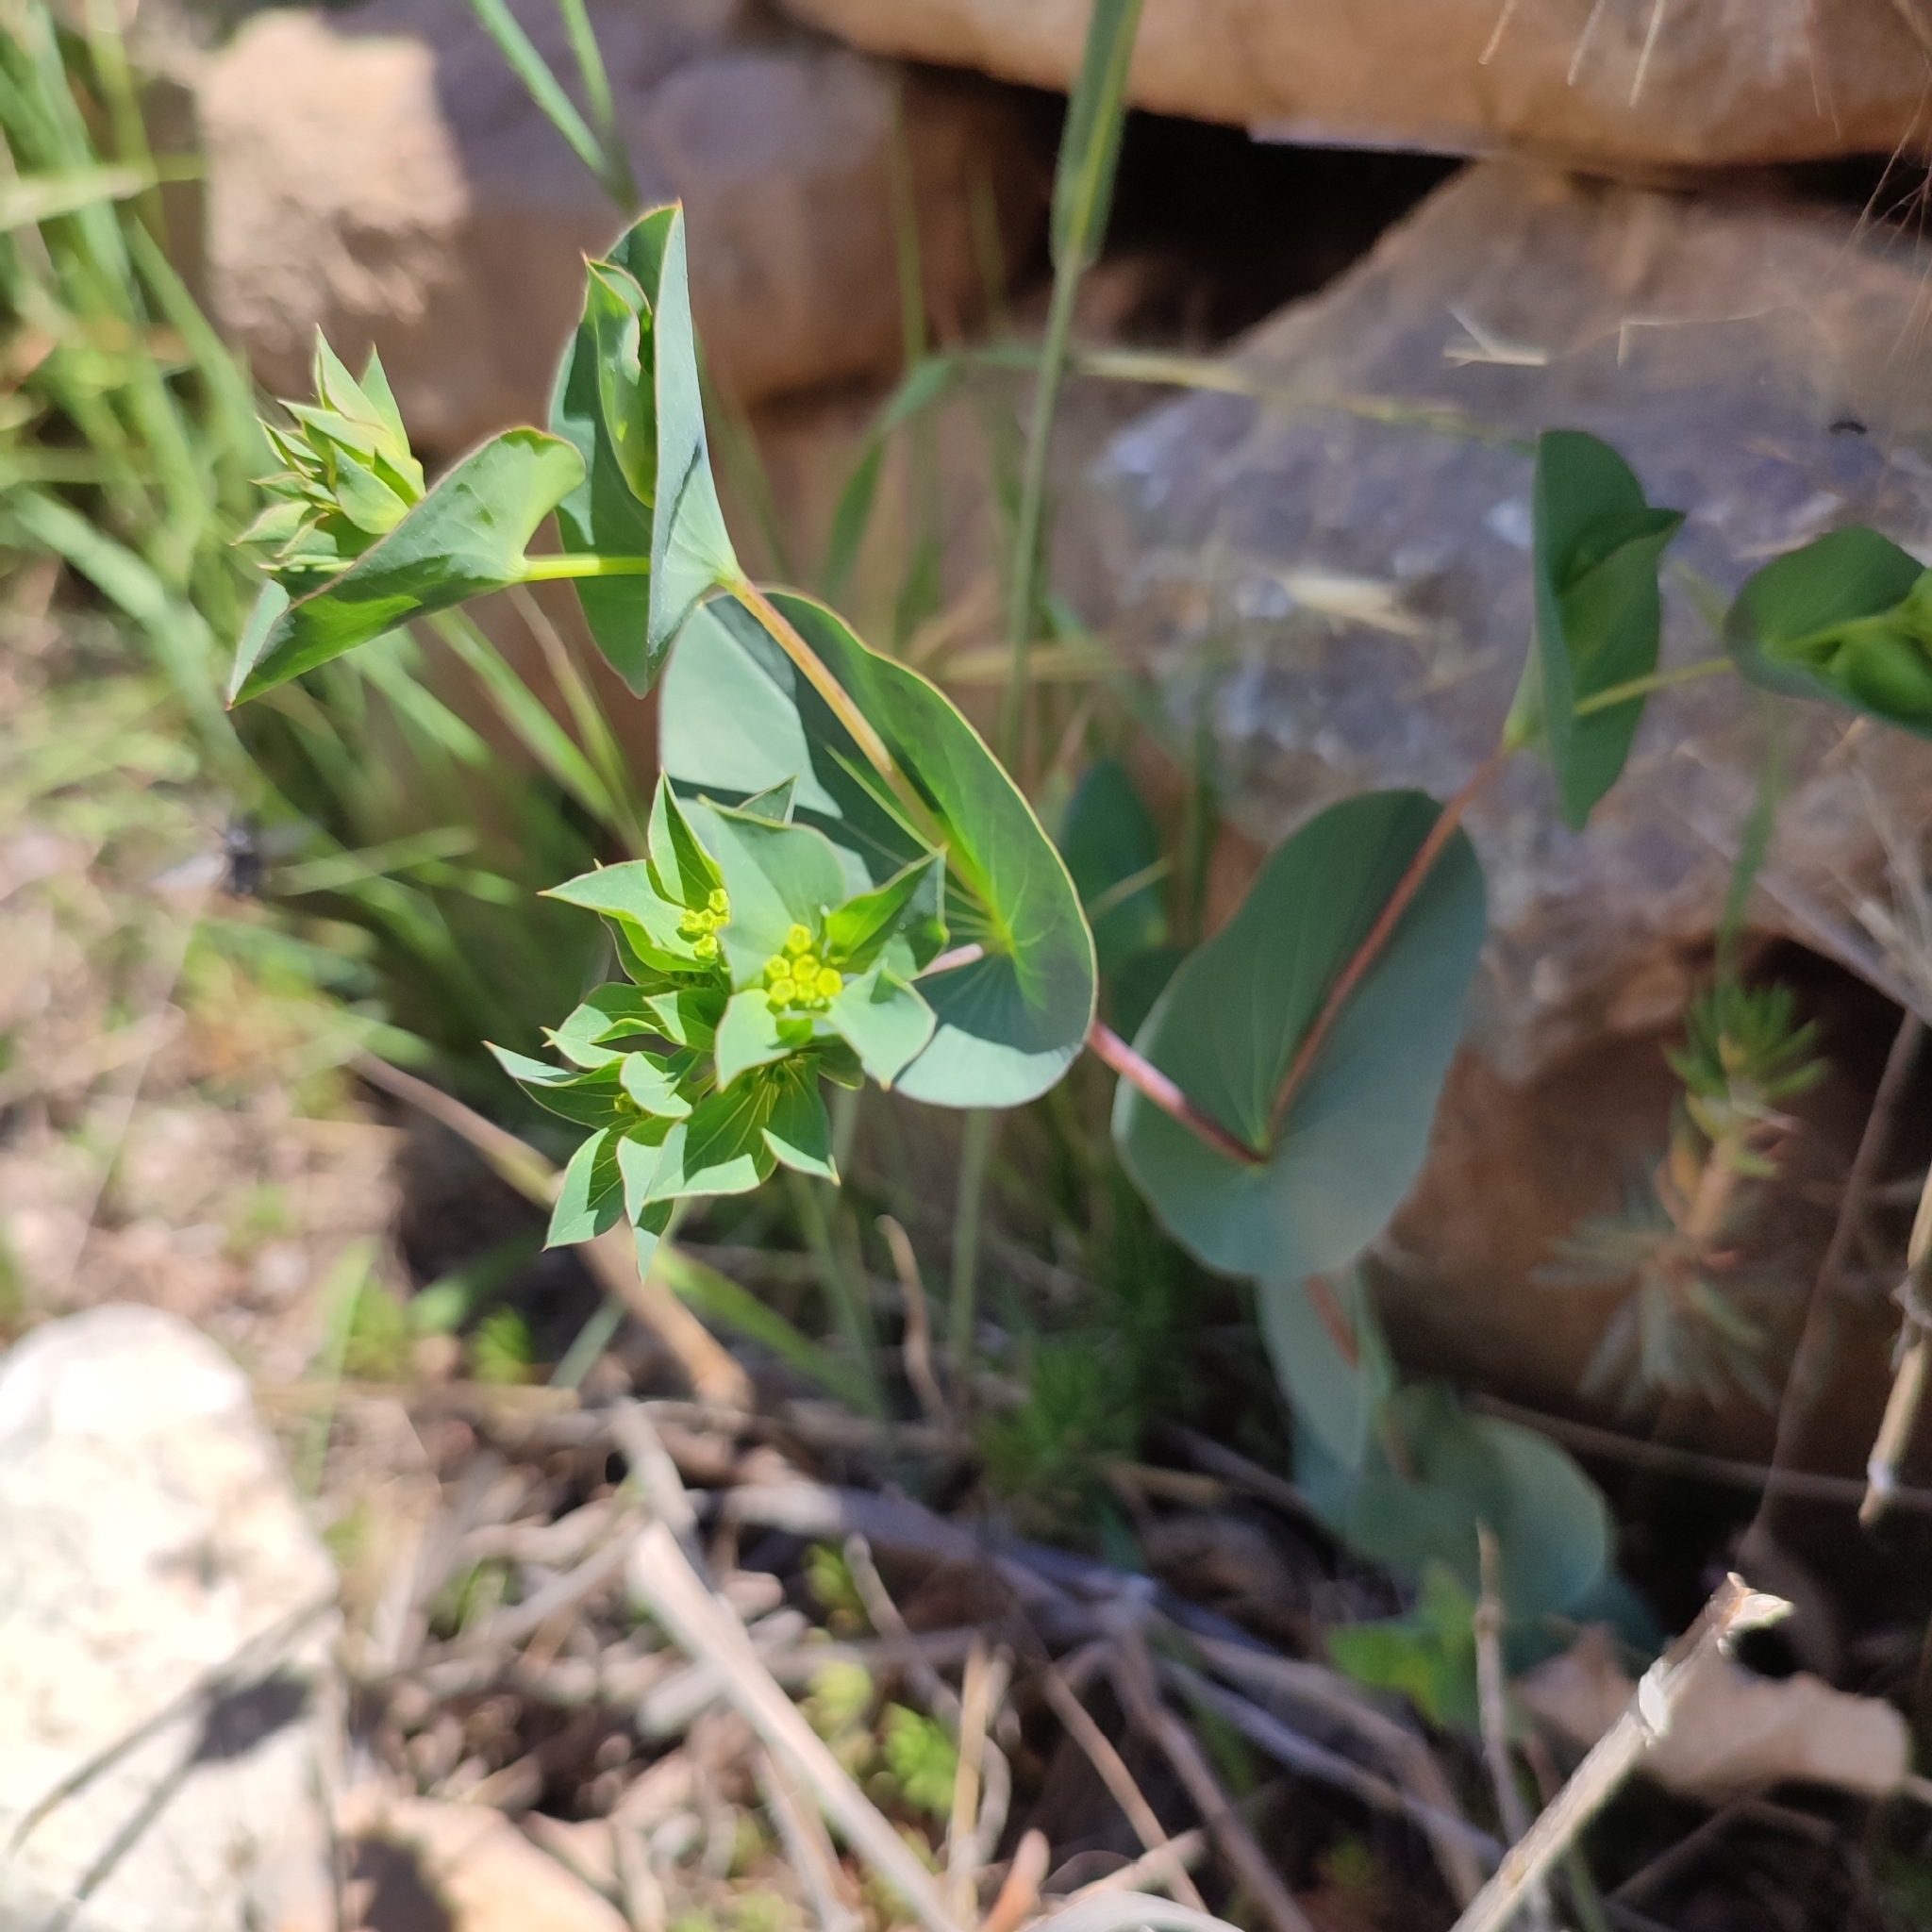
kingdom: Plantae
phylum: Tracheophyta
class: Magnoliopsida
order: Apiales
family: Apiaceae
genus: Bupleurum
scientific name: Bupleurum rotundifolium
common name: Thorow-wax
